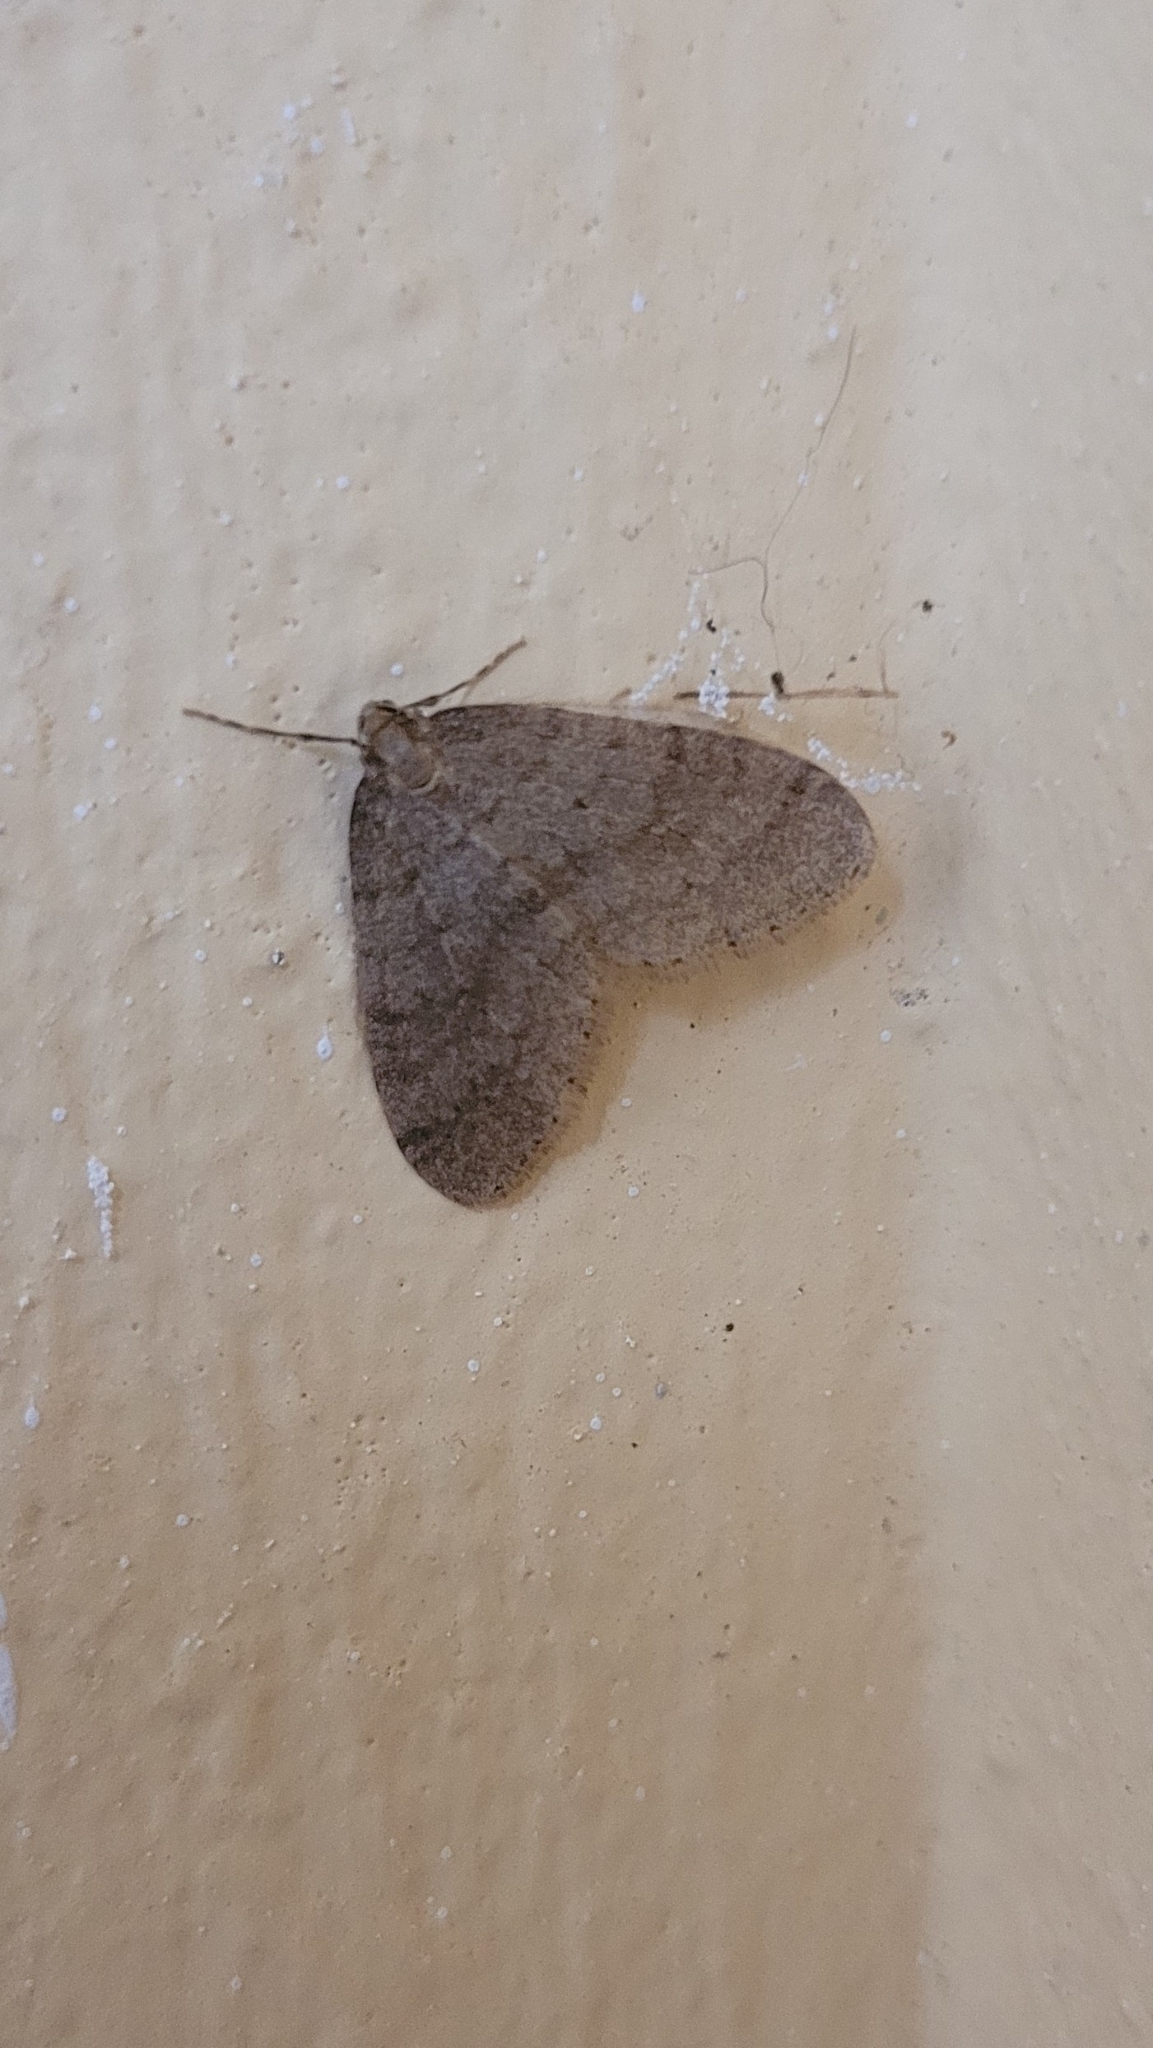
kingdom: Animalia
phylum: Arthropoda
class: Insecta
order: Lepidoptera
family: Geometridae
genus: Operophtera
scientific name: Operophtera brumata
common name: Winter moth
